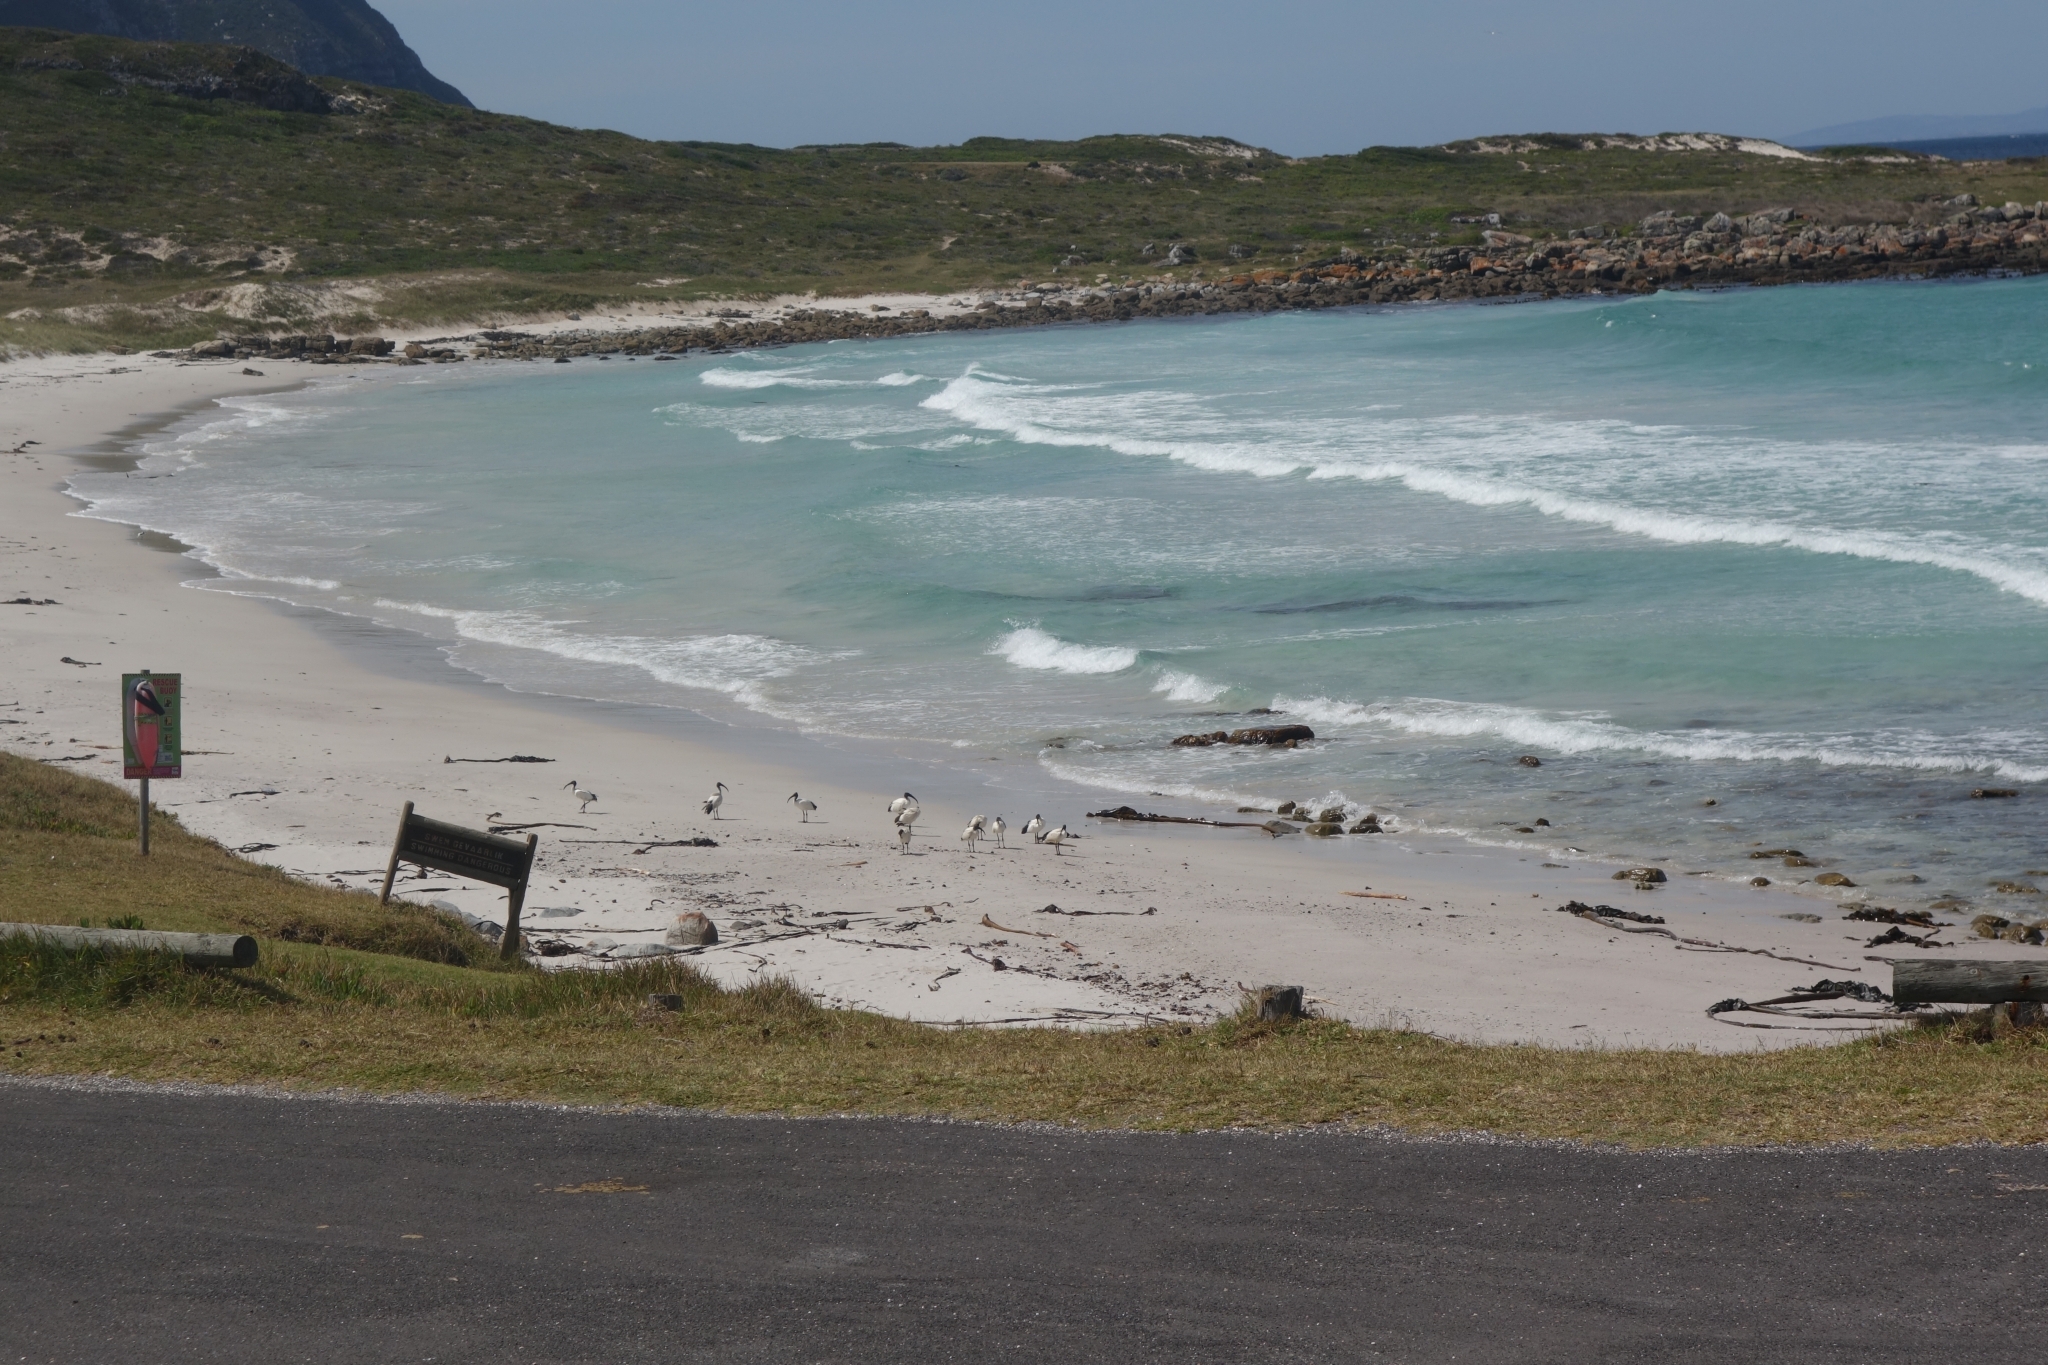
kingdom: Animalia
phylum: Chordata
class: Aves
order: Pelecaniformes
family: Threskiornithidae
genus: Threskiornis
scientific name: Threskiornis aethiopicus
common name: Sacred ibis
